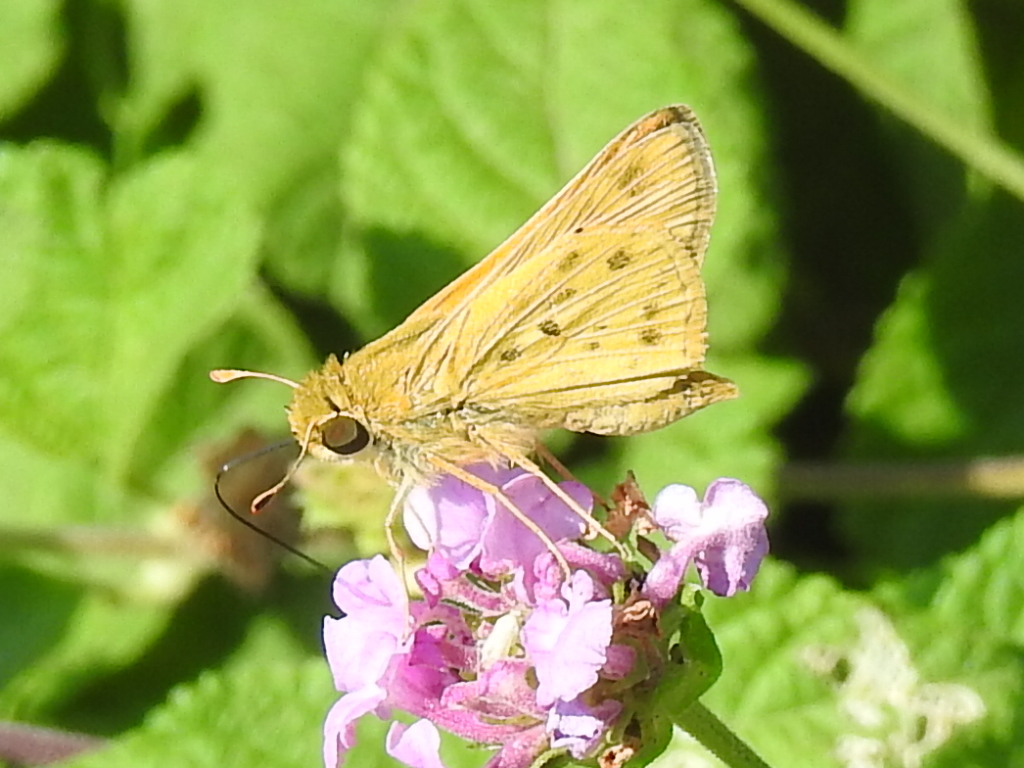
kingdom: Animalia
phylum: Arthropoda
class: Insecta
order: Lepidoptera
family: Hesperiidae
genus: Hylephila
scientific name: Hylephila phyleus
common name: Fiery skipper
